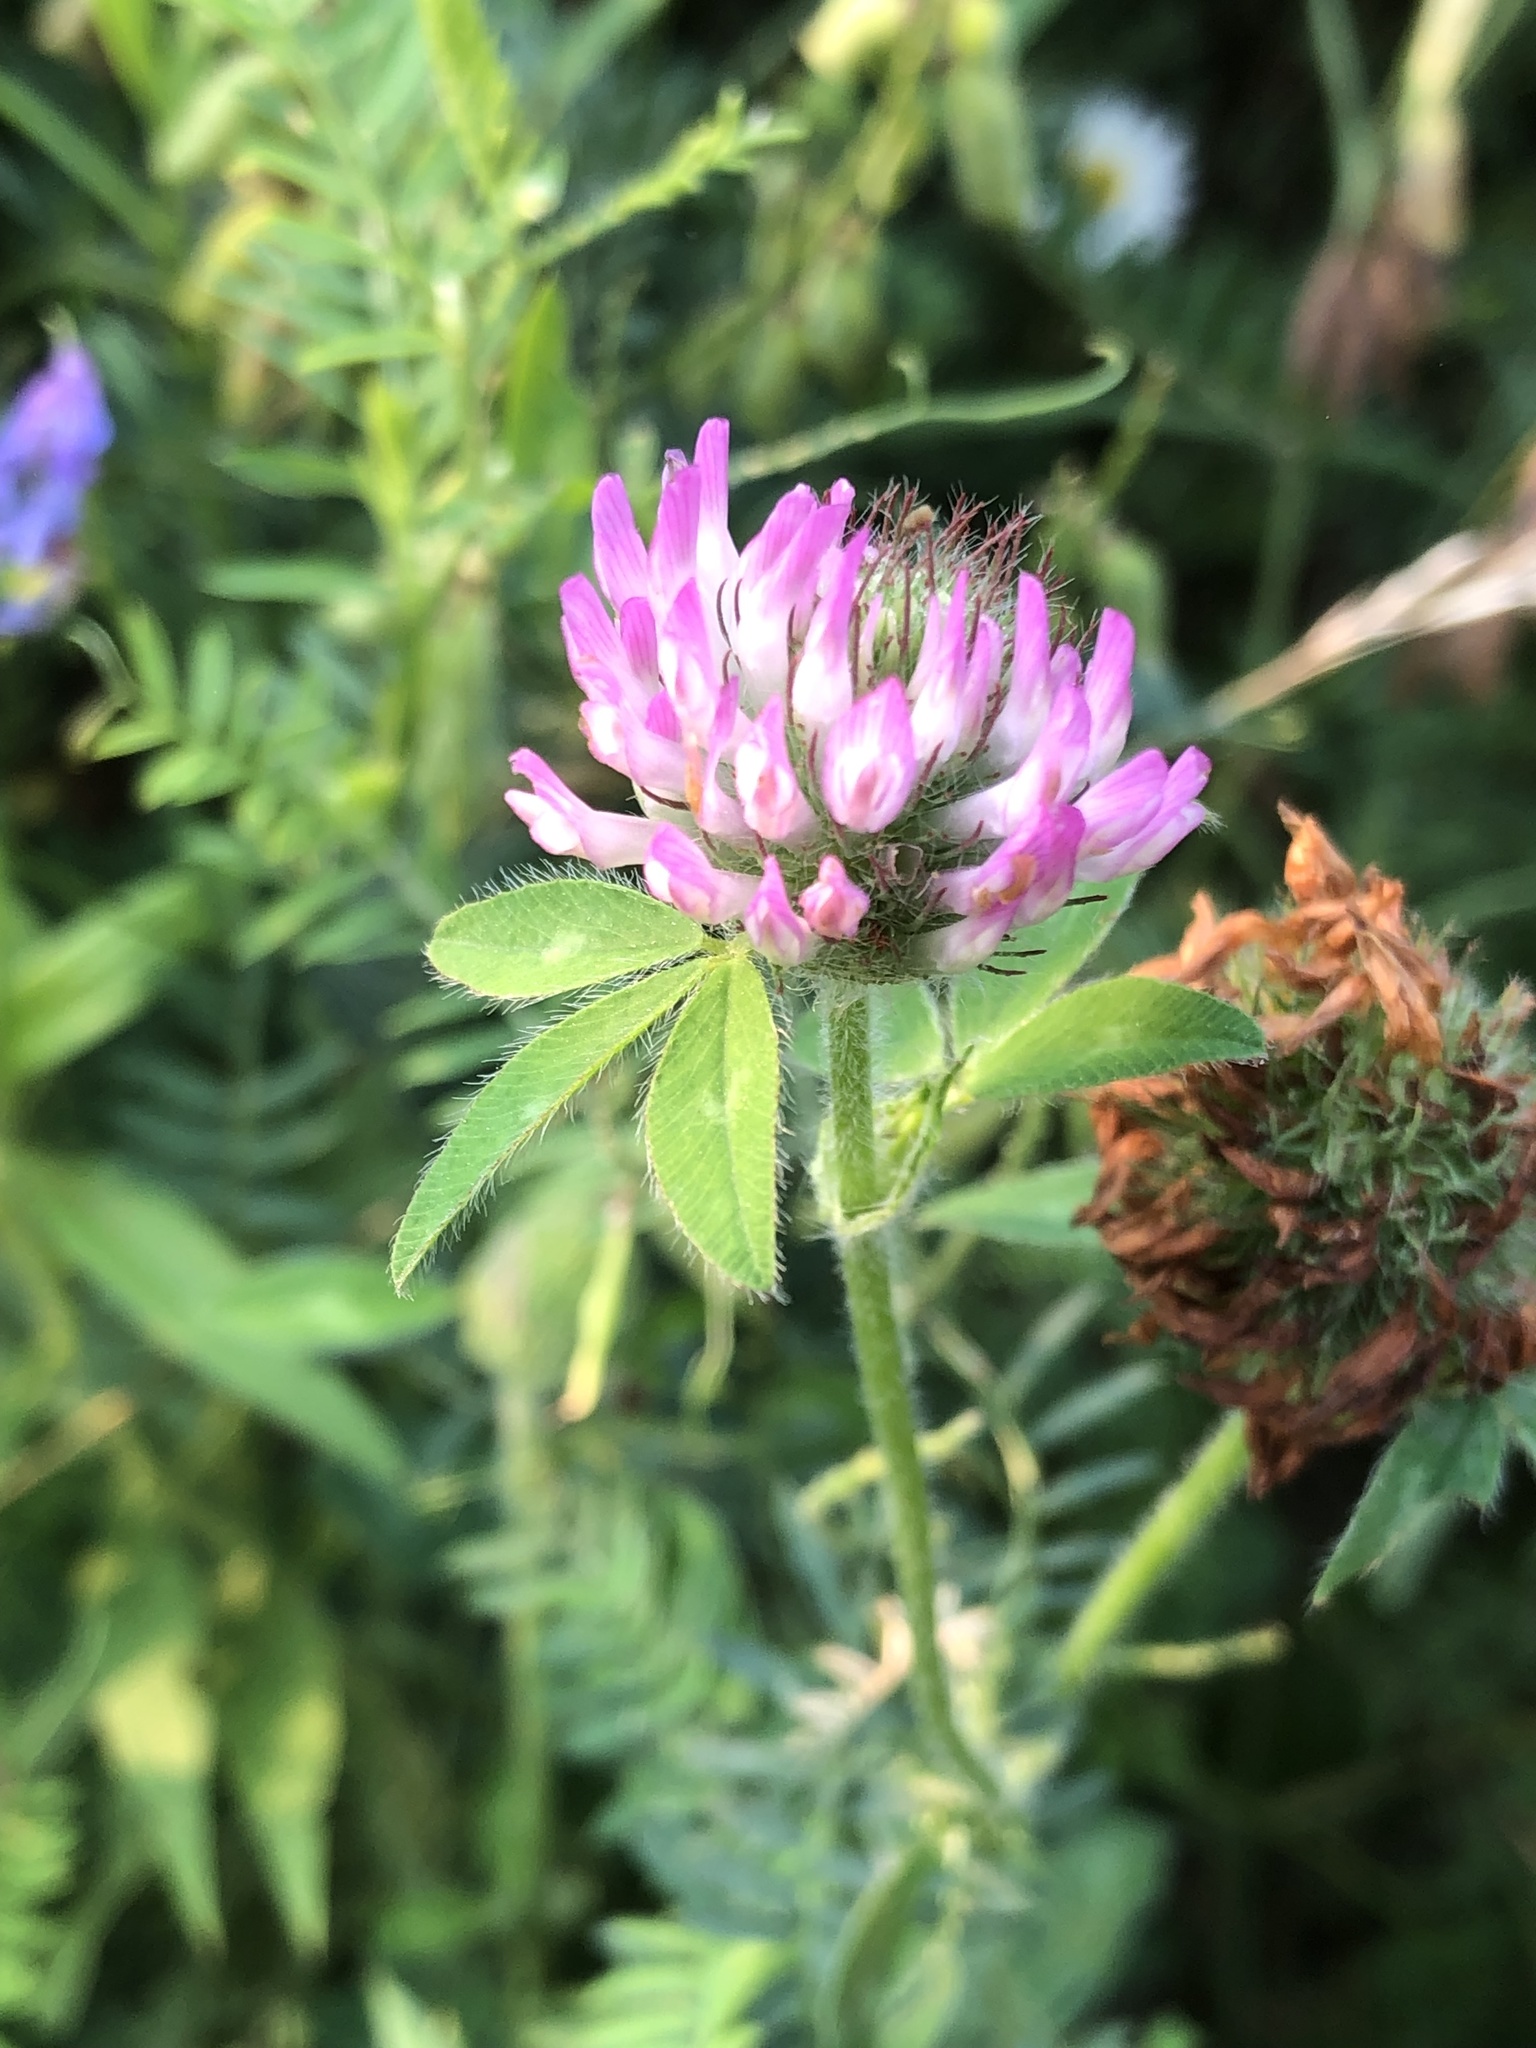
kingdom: Plantae
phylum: Tracheophyta
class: Magnoliopsida
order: Fabales
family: Fabaceae
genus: Trifolium
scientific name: Trifolium pratense
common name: Red clover
